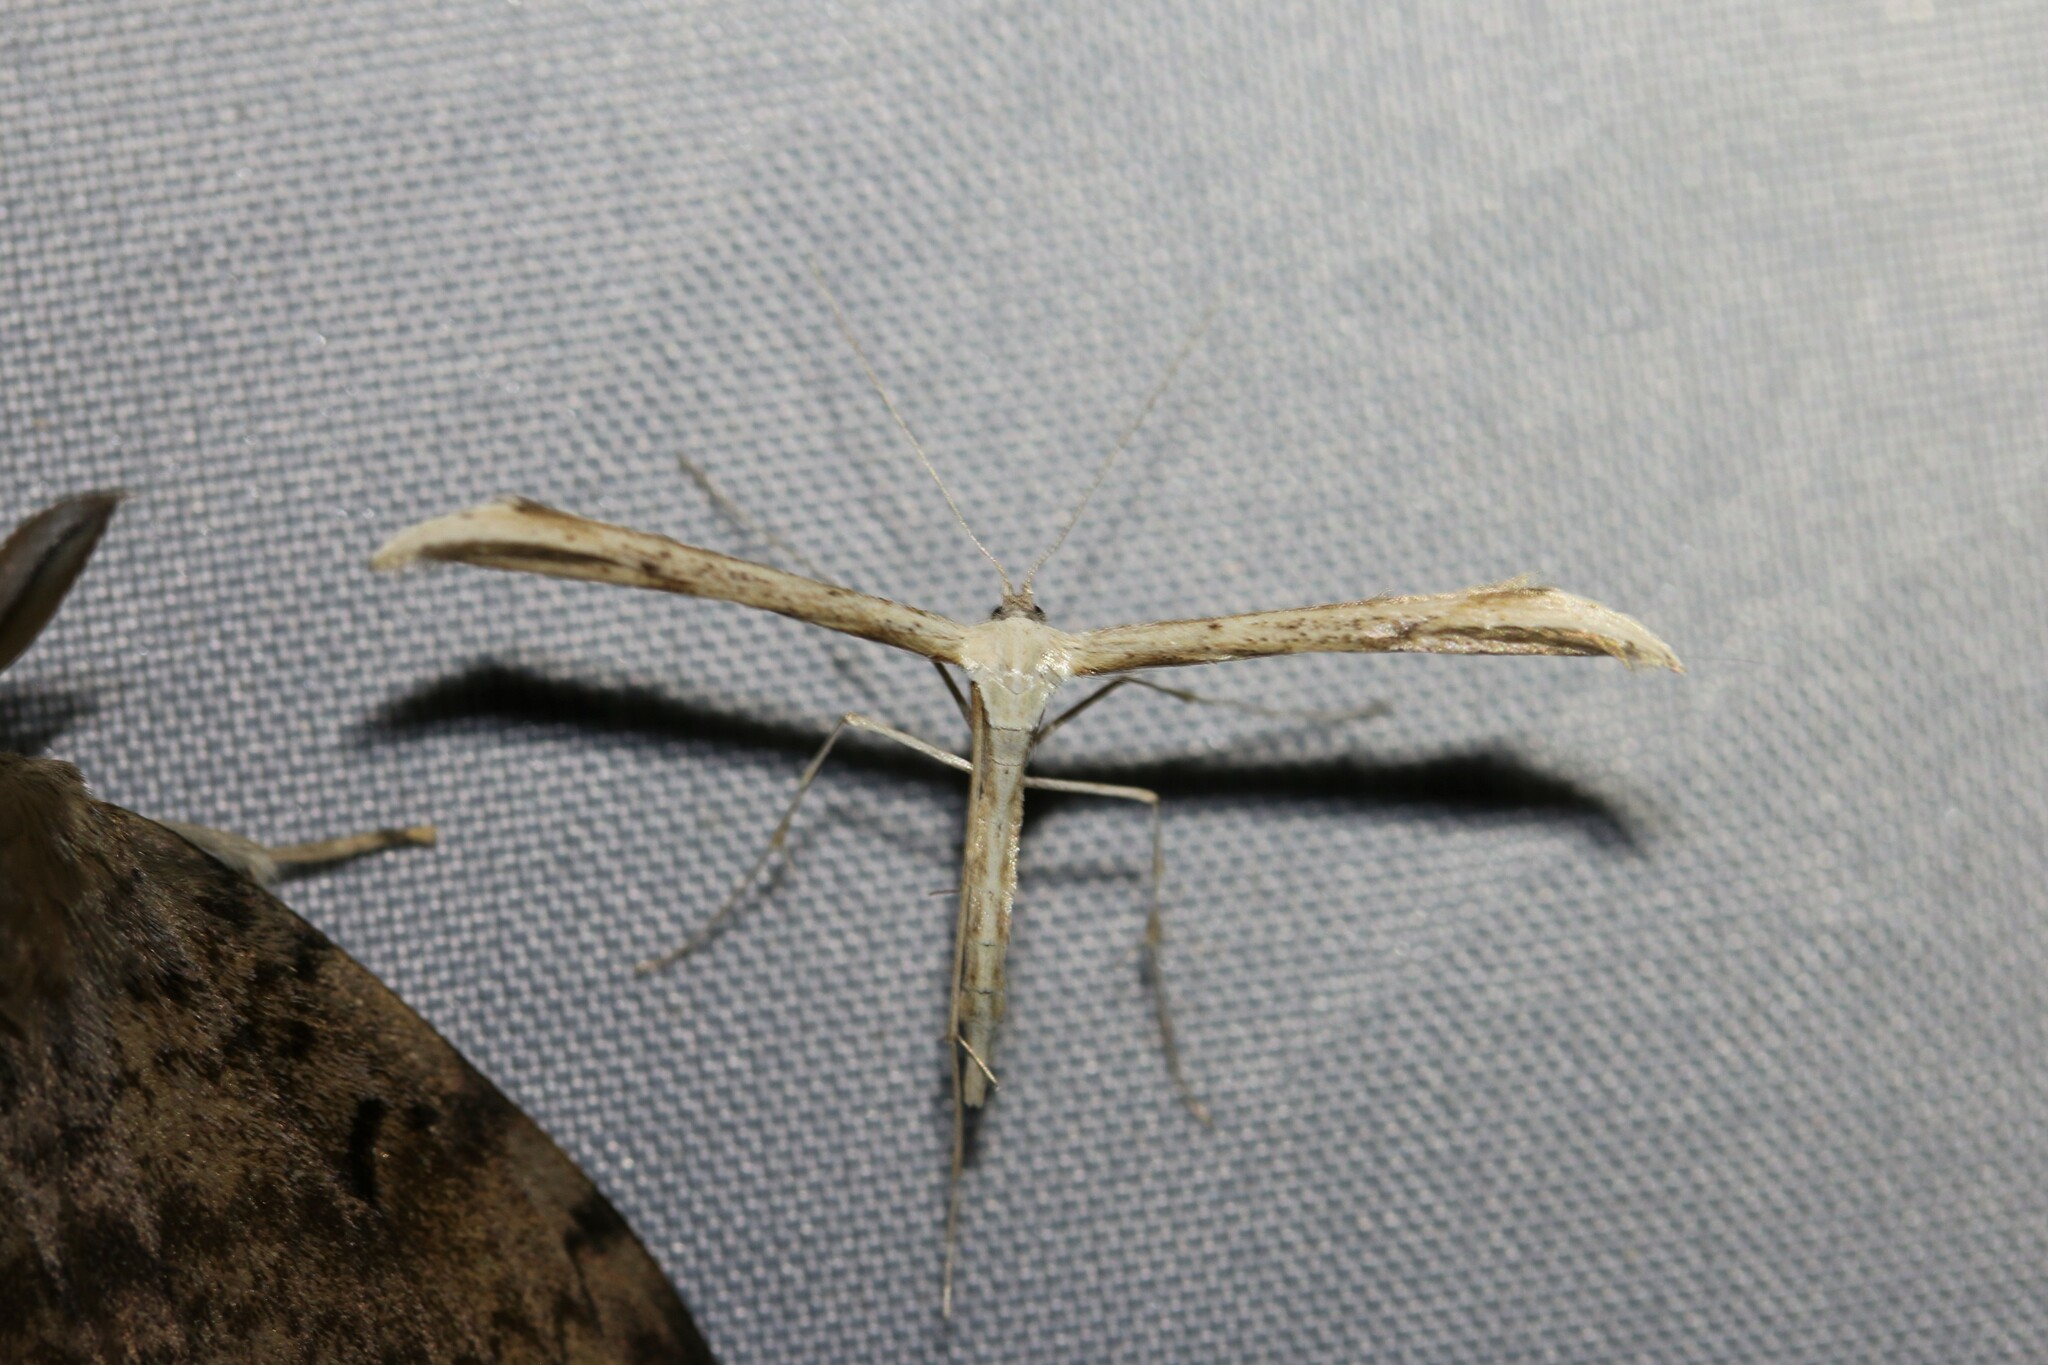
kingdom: Animalia
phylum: Arthropoda
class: Insecta
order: Lepidoptera
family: Pterophoridae
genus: Emmelina
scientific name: Emmelina monodactyla
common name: Common plume
